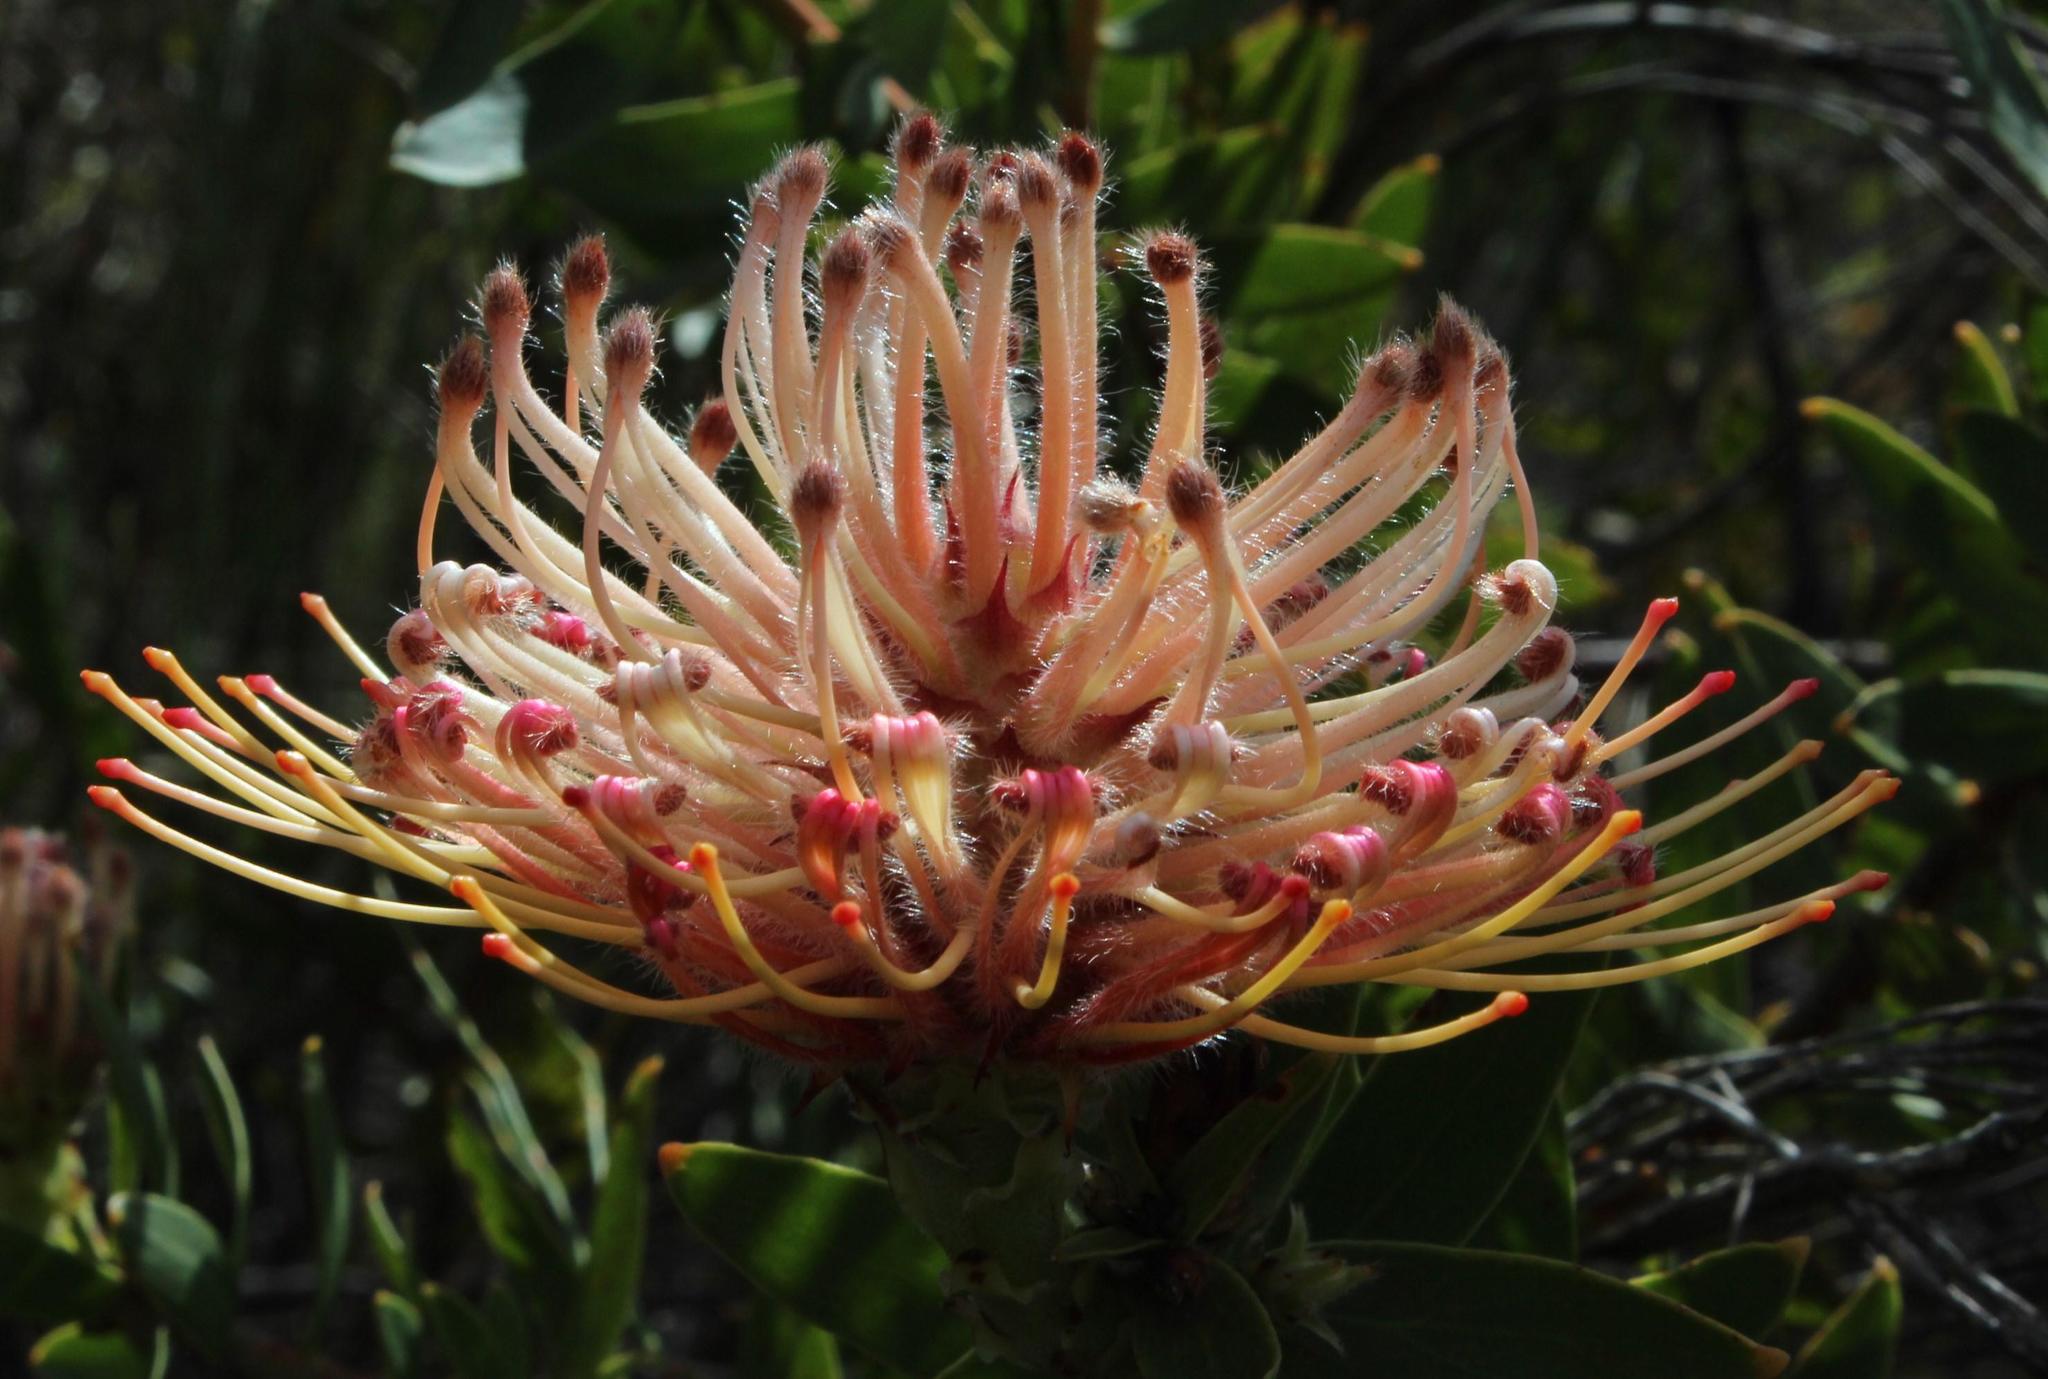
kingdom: Plantae
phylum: Tracheophyta
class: Magnoliopsida
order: Proteales
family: Proteaceae
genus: Leucospermum
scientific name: Leucospermum tottum
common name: Ribbon pincushion
